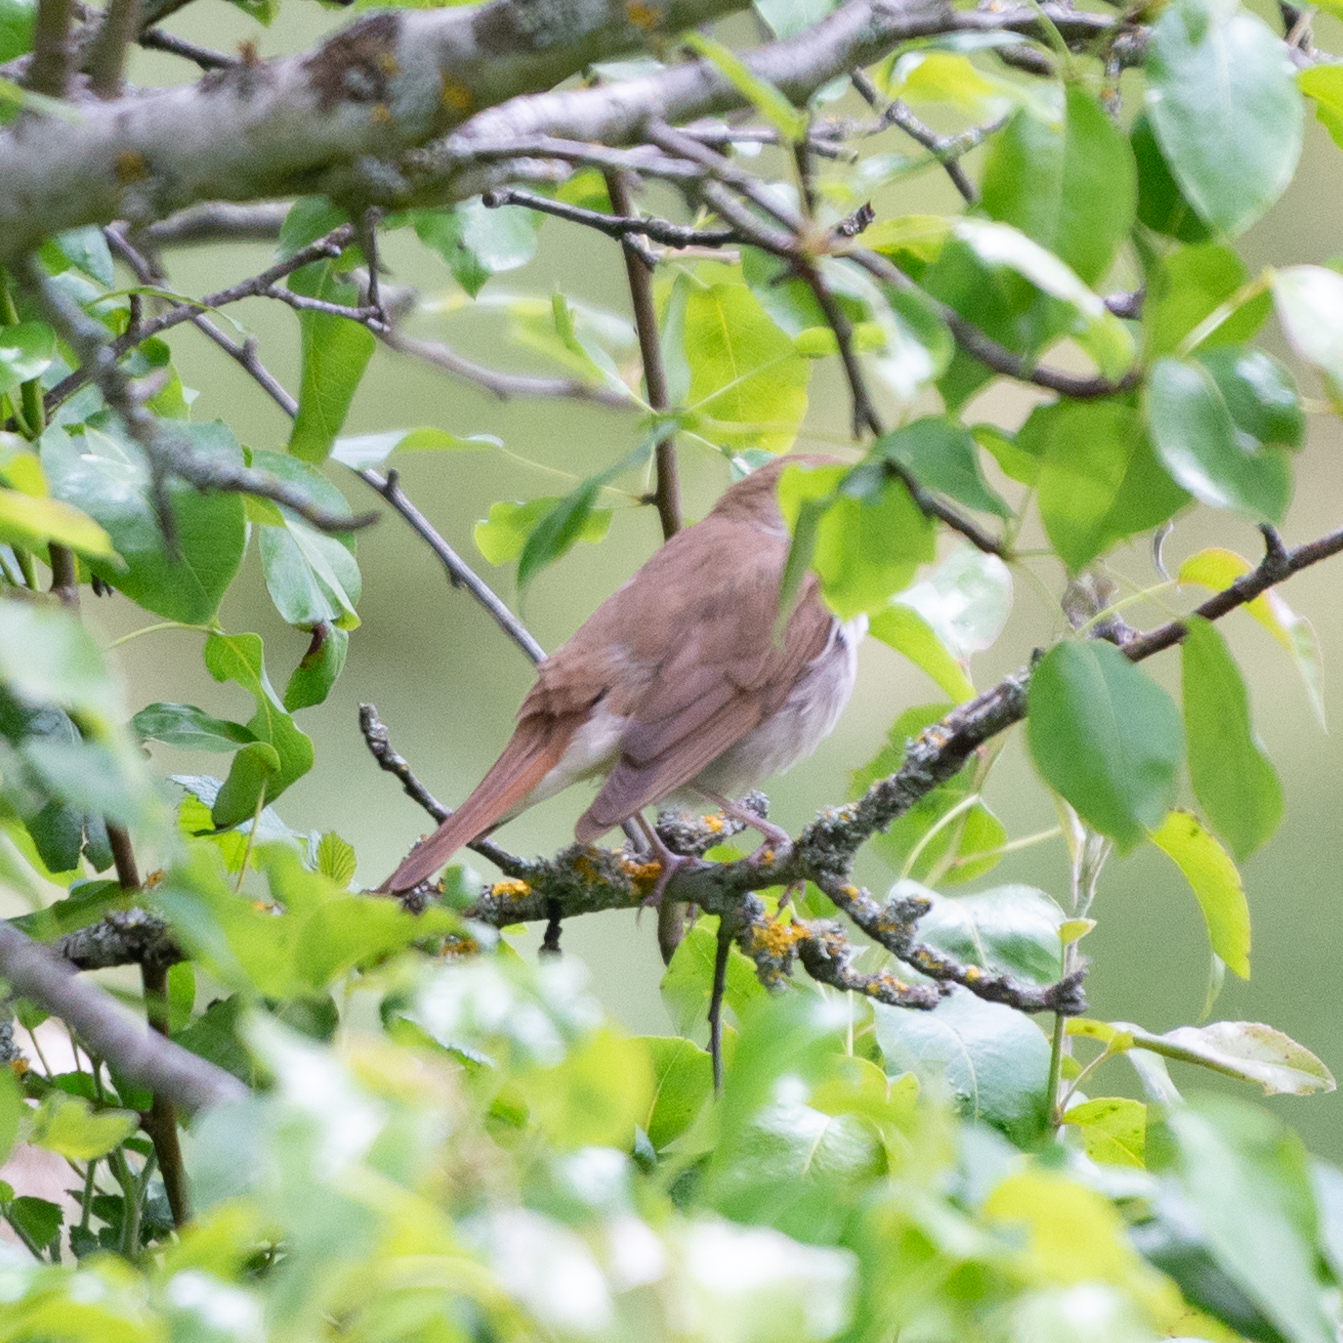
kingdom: Animalia
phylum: Chordata
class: Aves
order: Passeriformes
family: Muscicapidae
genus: Luscinia
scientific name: Luscinia megarhynchos
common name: Common nightingale
